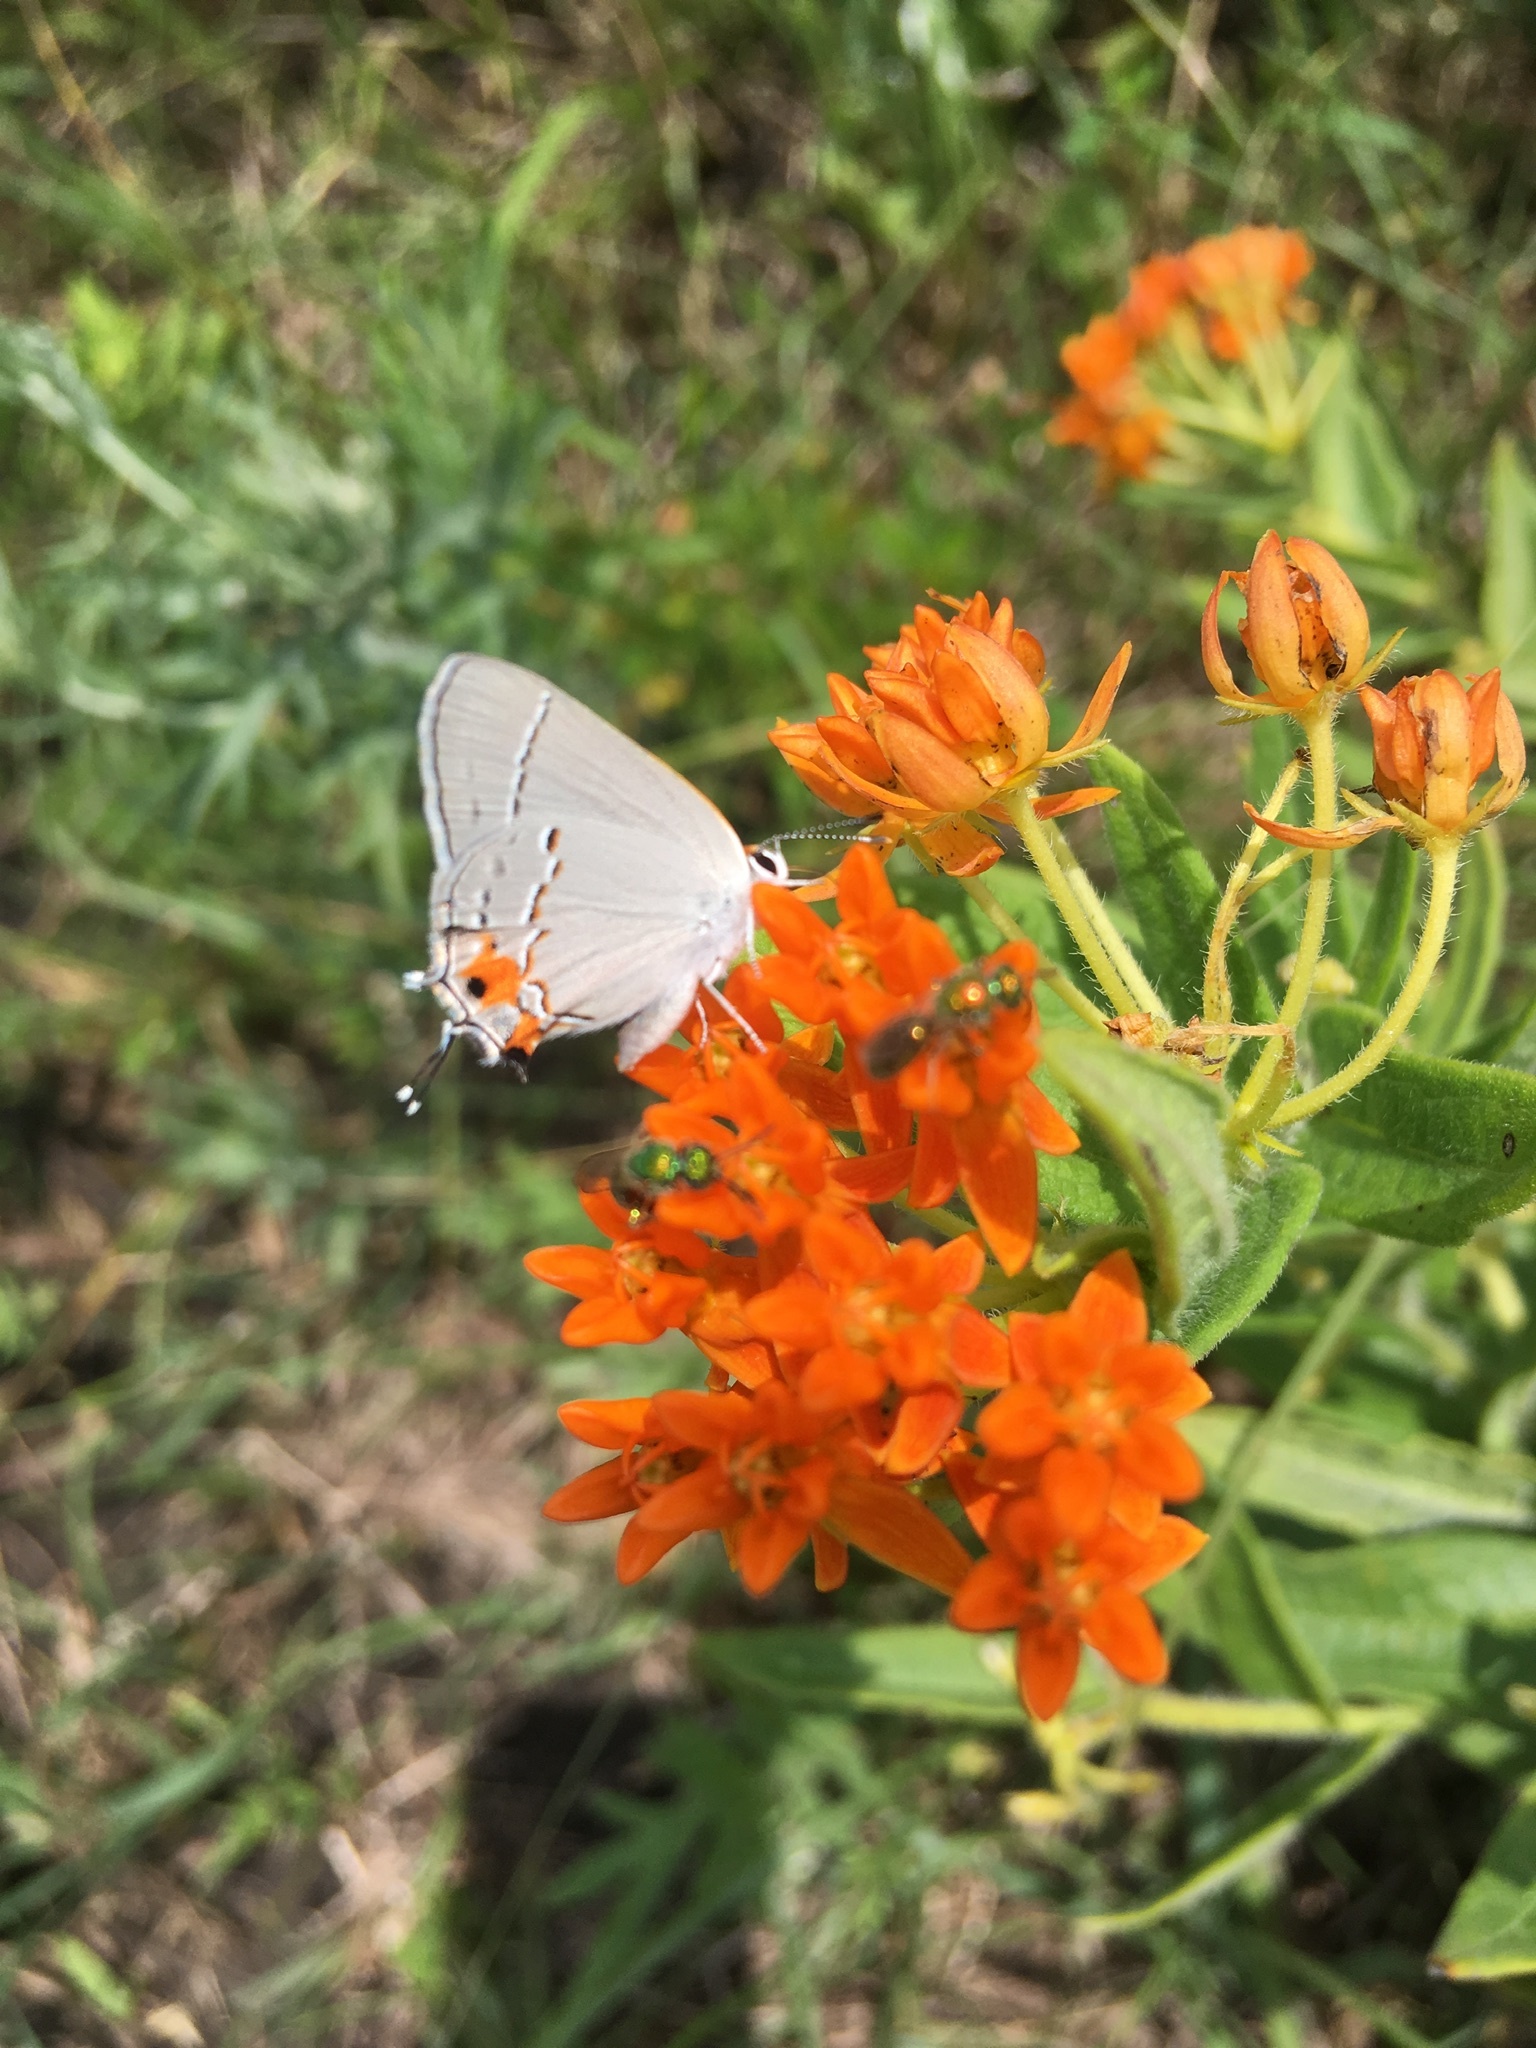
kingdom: Animalia
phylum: Arthropoda
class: Insecta
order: Lepidoptera
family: Lycaenidae
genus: Strymon
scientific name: Strymon melinus
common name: Gray hairstreak
